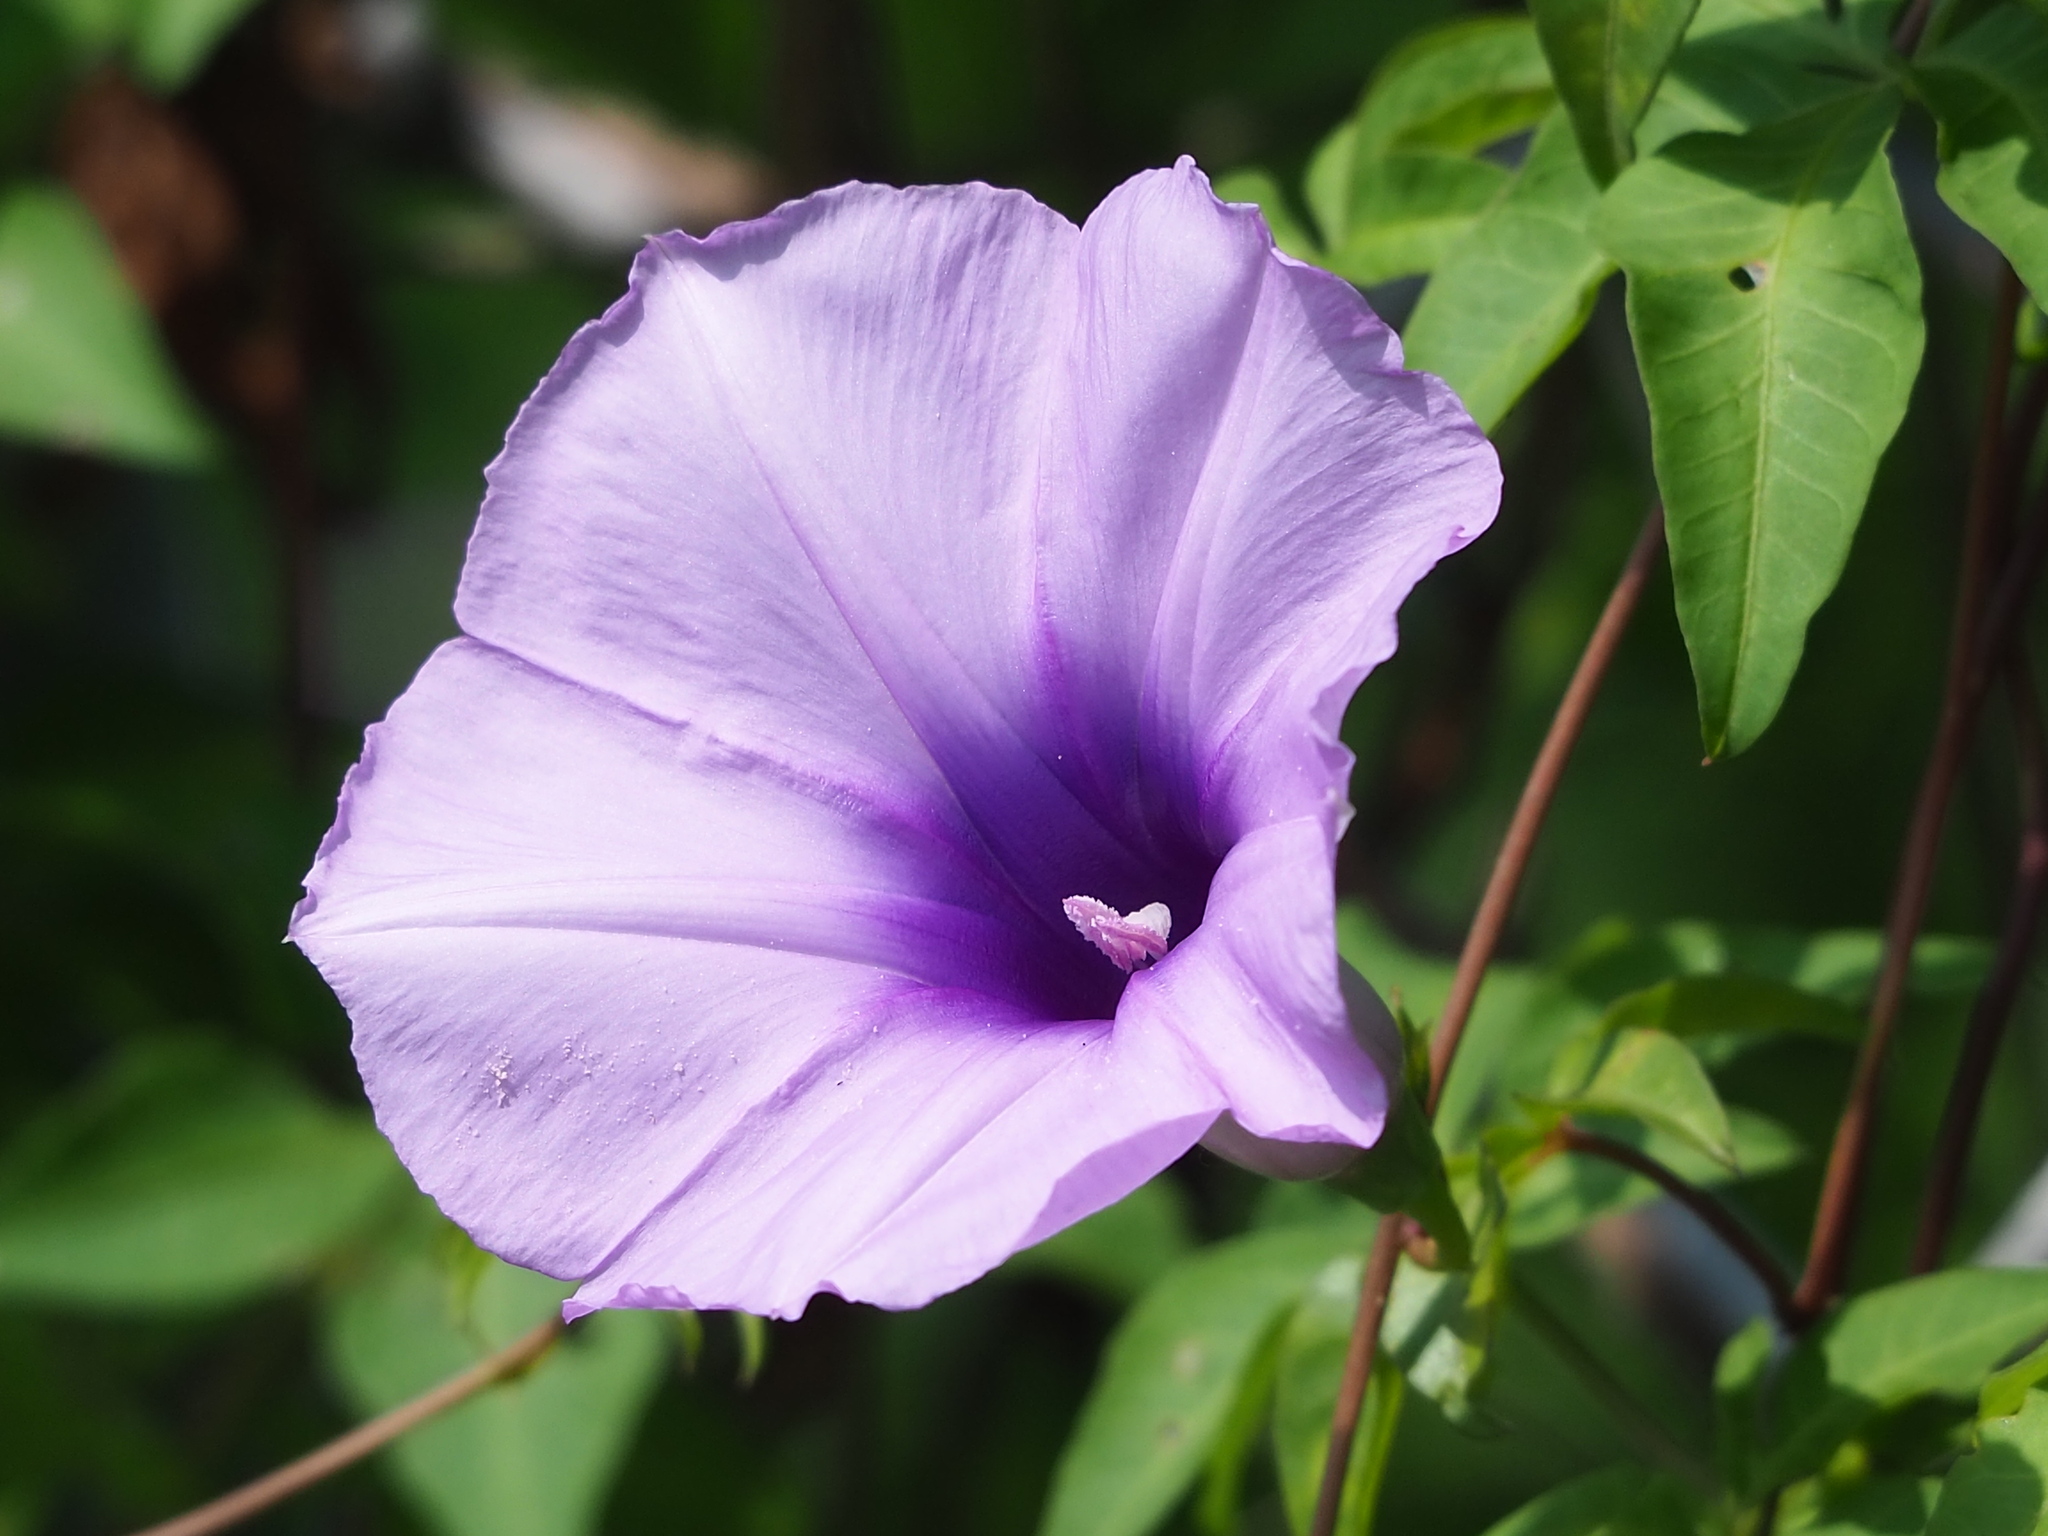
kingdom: Plantae
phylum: Tracheophyta
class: Magnoliopsida
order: Solanales
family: Convolvulaceae
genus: Ipomoea
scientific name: Ipomoea cairica
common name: Mile a minute vine
